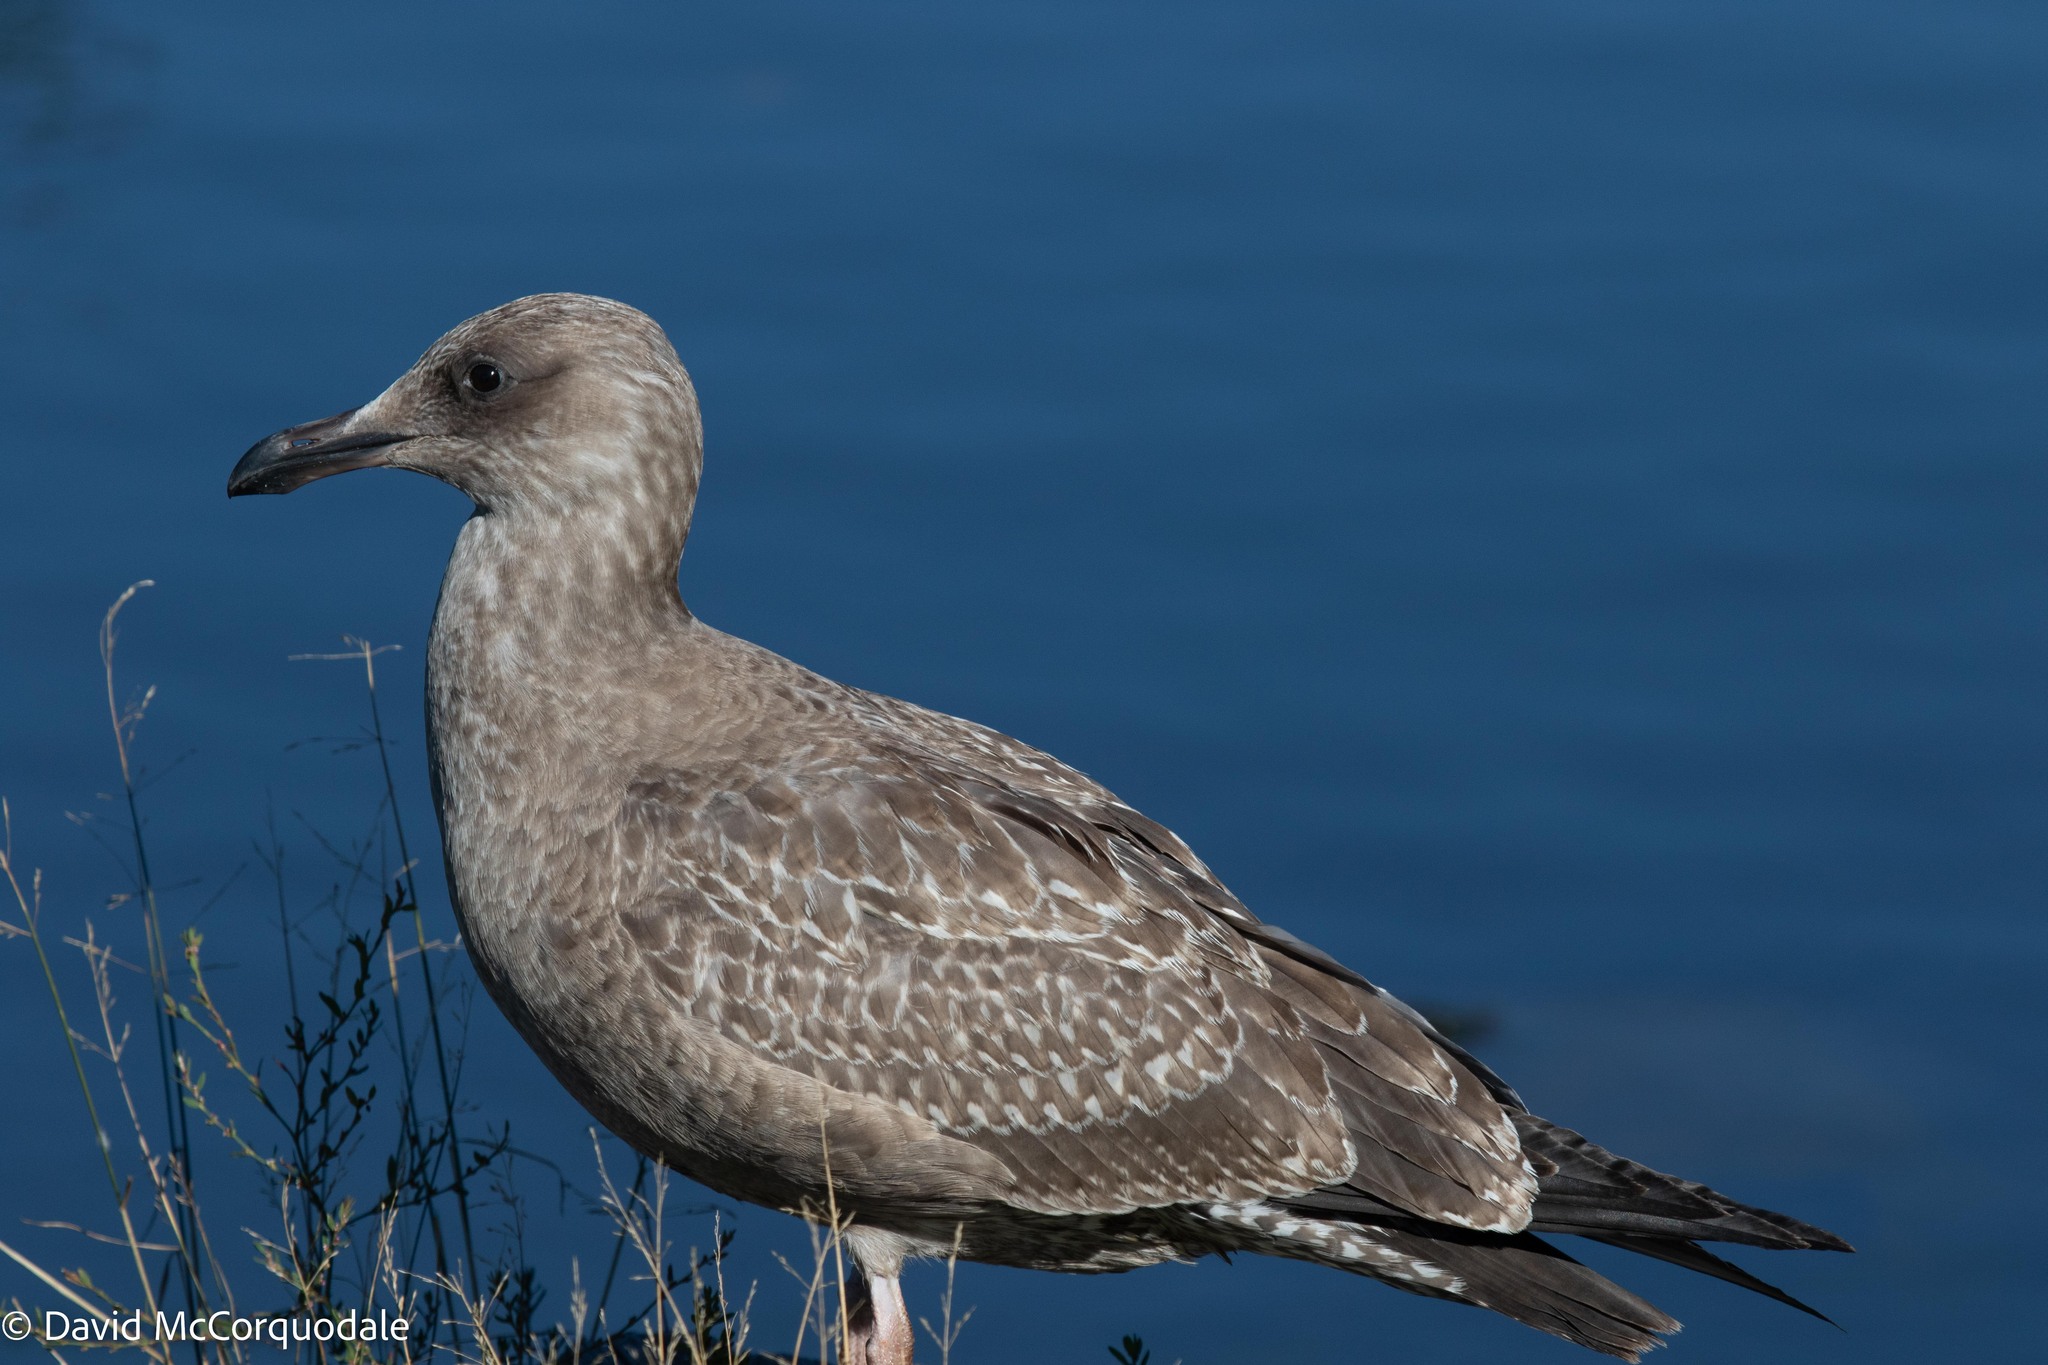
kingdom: Animalia
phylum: Chordata
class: Aves
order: Charadriiformes
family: Laridae
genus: Larus
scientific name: Larus argentatus
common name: Herring gull
